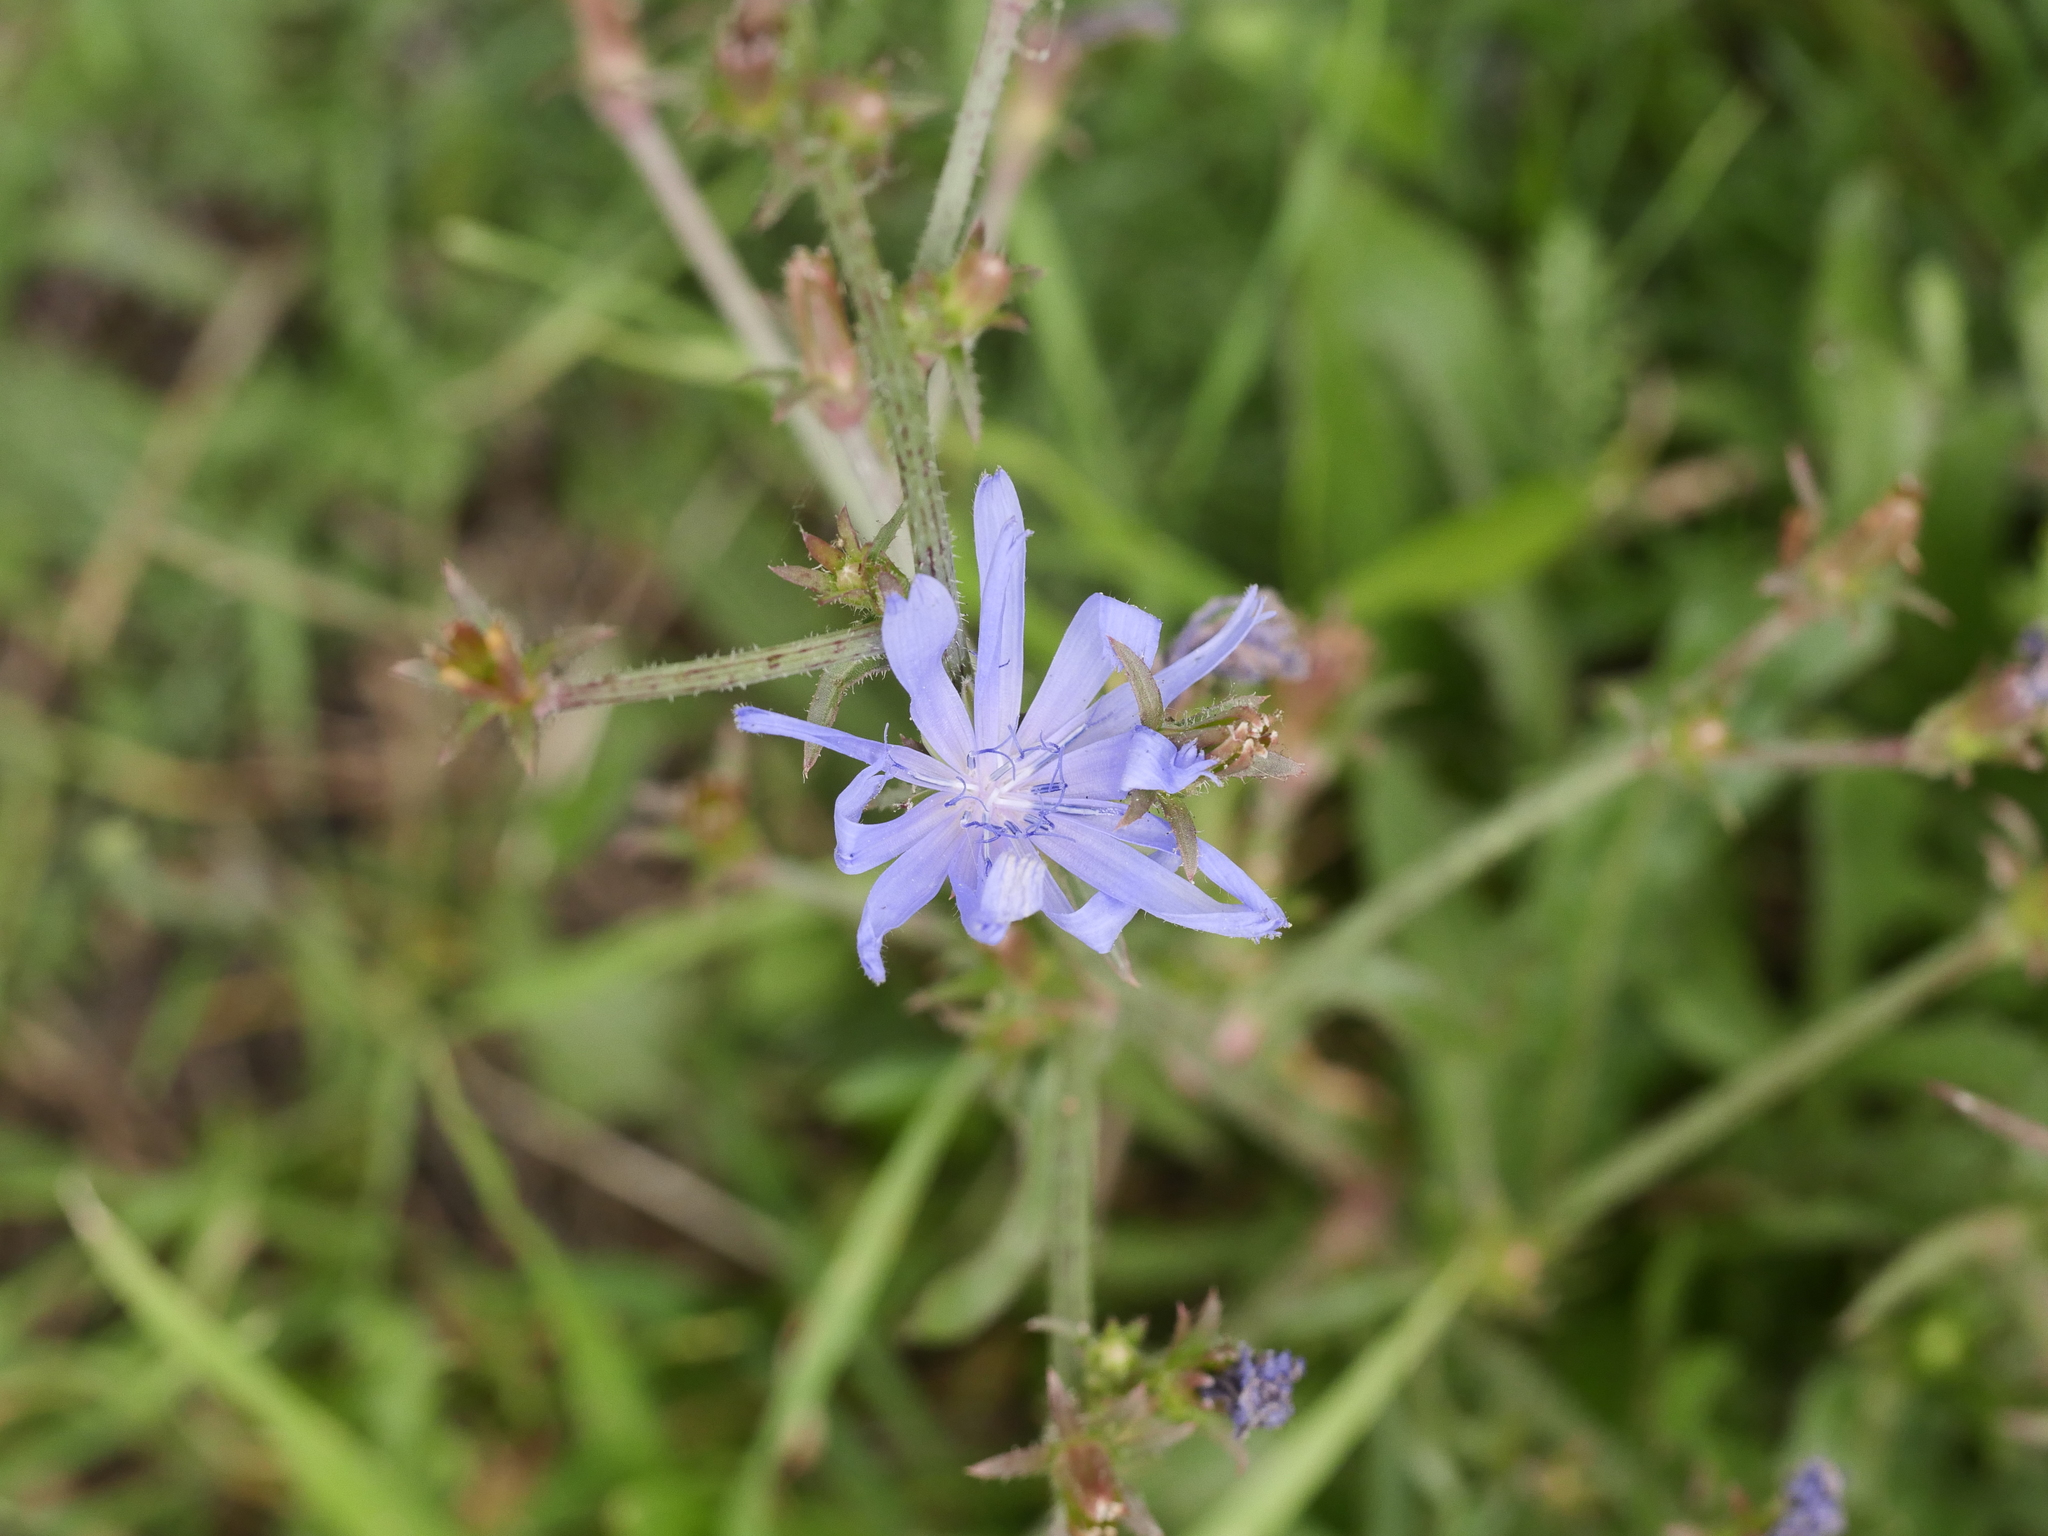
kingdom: Plantae
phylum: Tracheophyta
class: Magnoliopsida
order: Asterales
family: Asteraceae
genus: Cichorium
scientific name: Cichorium intybus
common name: Chicory
